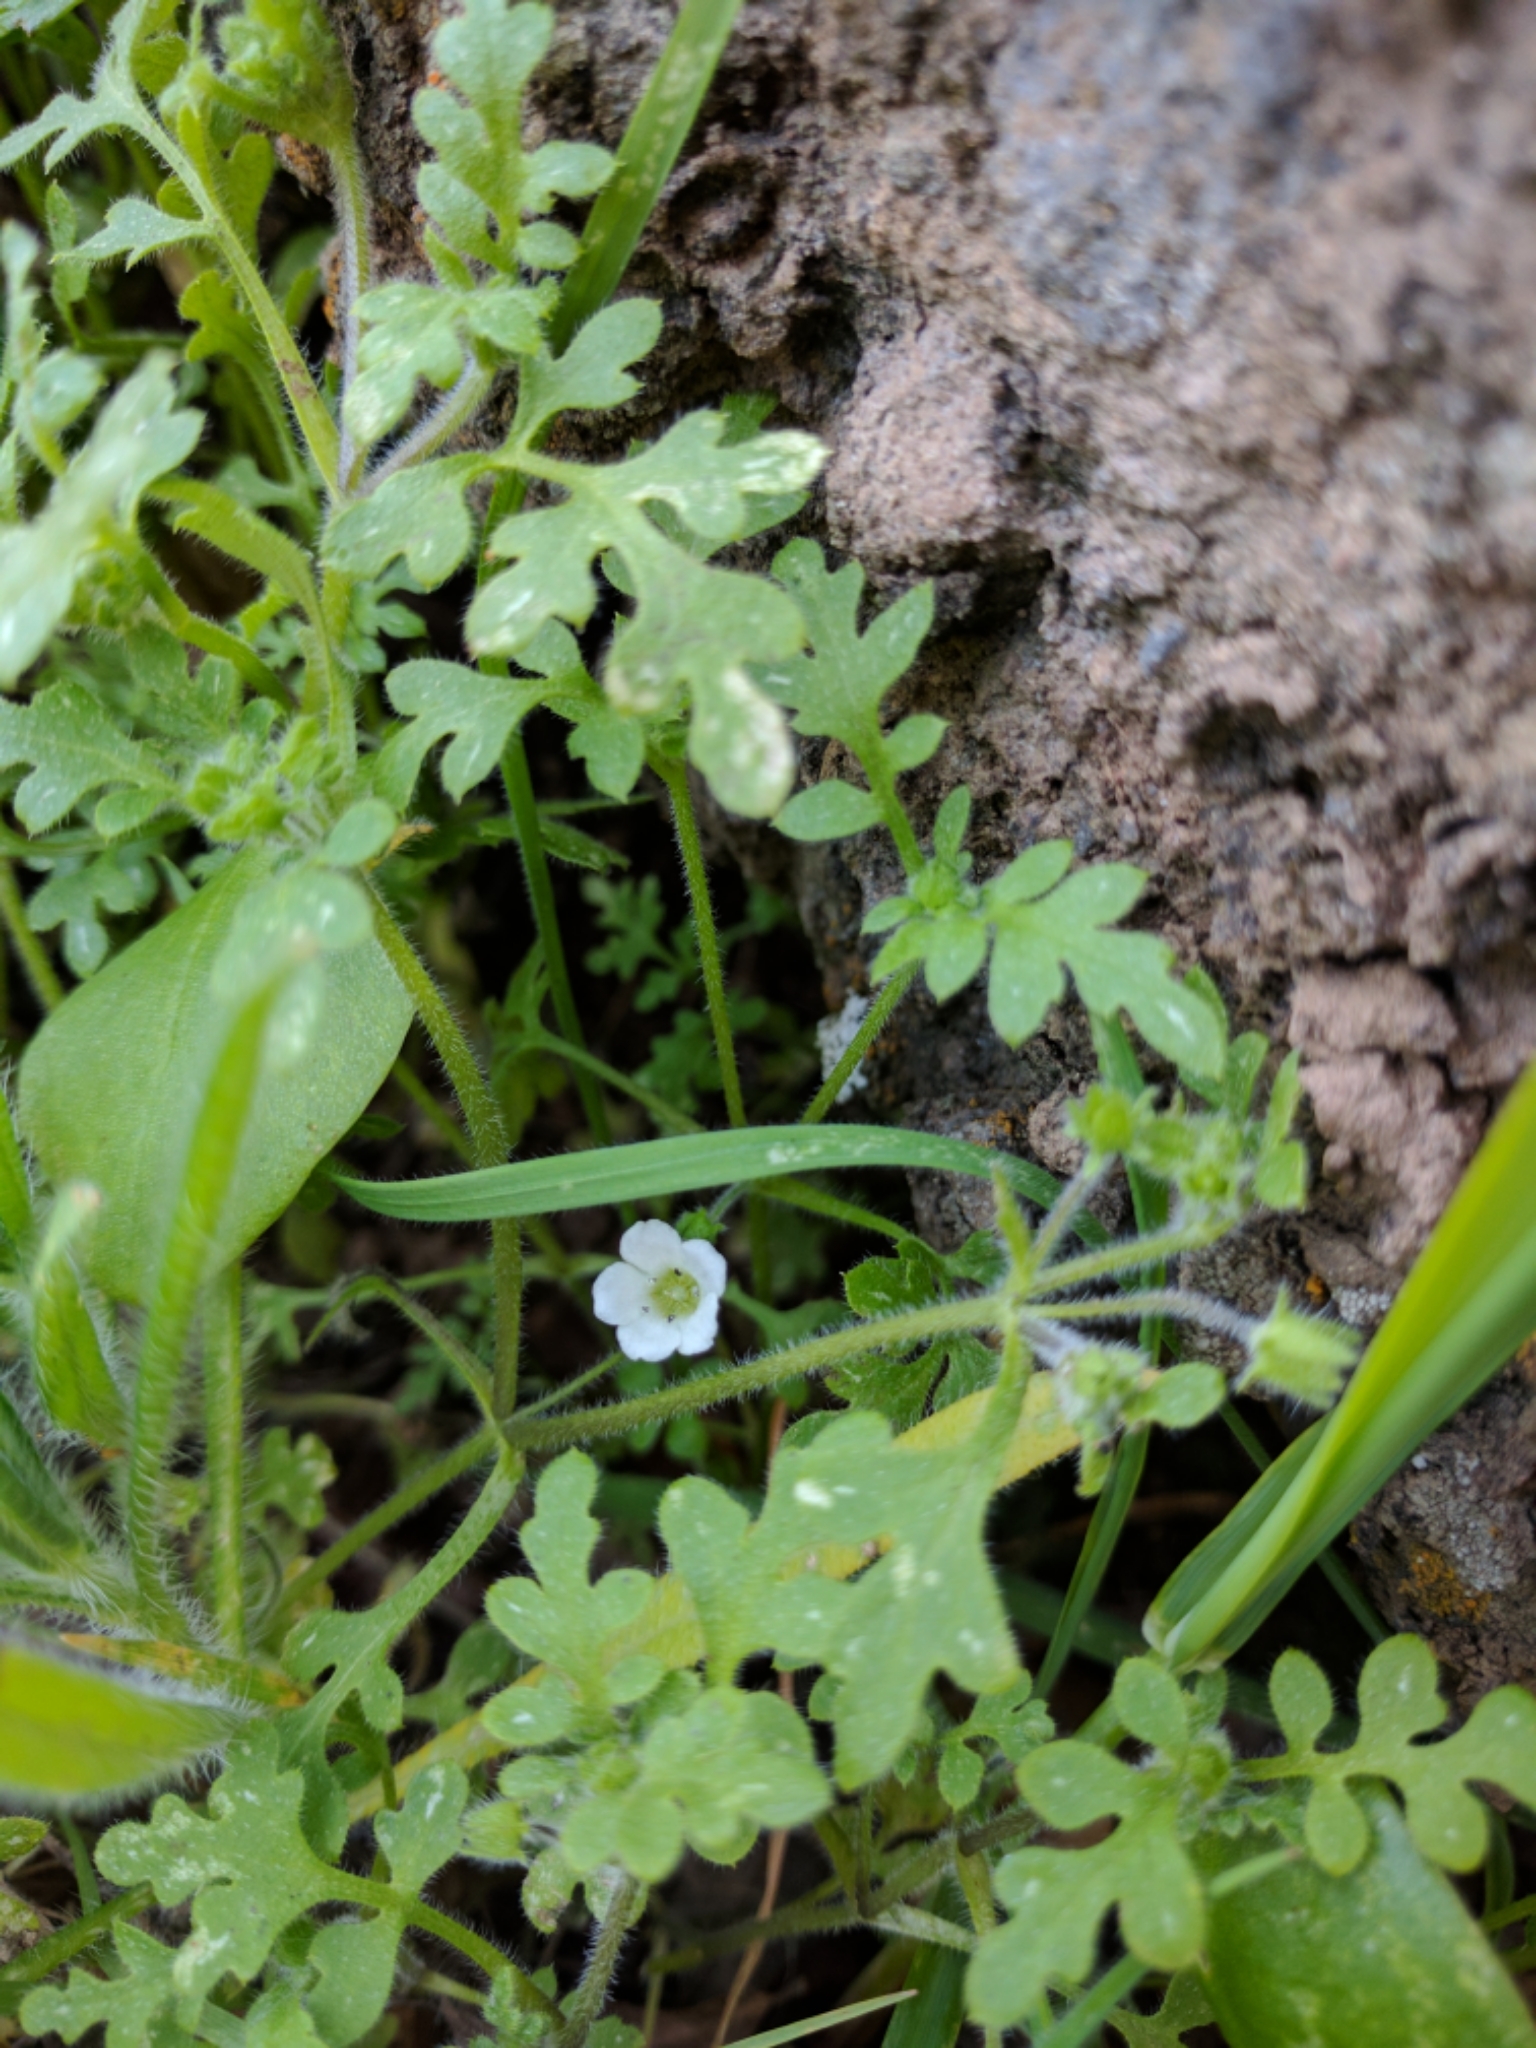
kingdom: Plantae
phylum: Tracheophyta
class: Magnoliopsida
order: Boraginales
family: Hydrophyllaceae
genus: Nemophila
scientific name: Nemophila heterophylla
